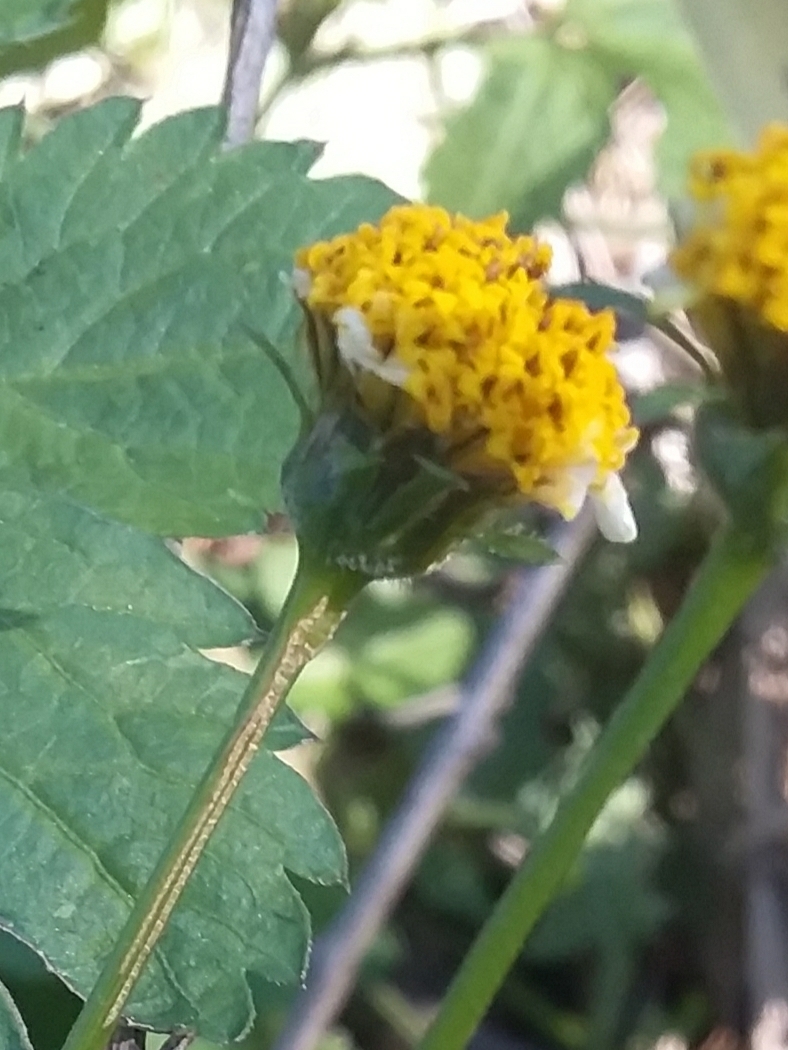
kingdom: Plantae
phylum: Tracheophyta
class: Magnoliopsida
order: Asterales
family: Asteraceae
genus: Bidens
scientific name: Bidens pilosa
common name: Black-jack
